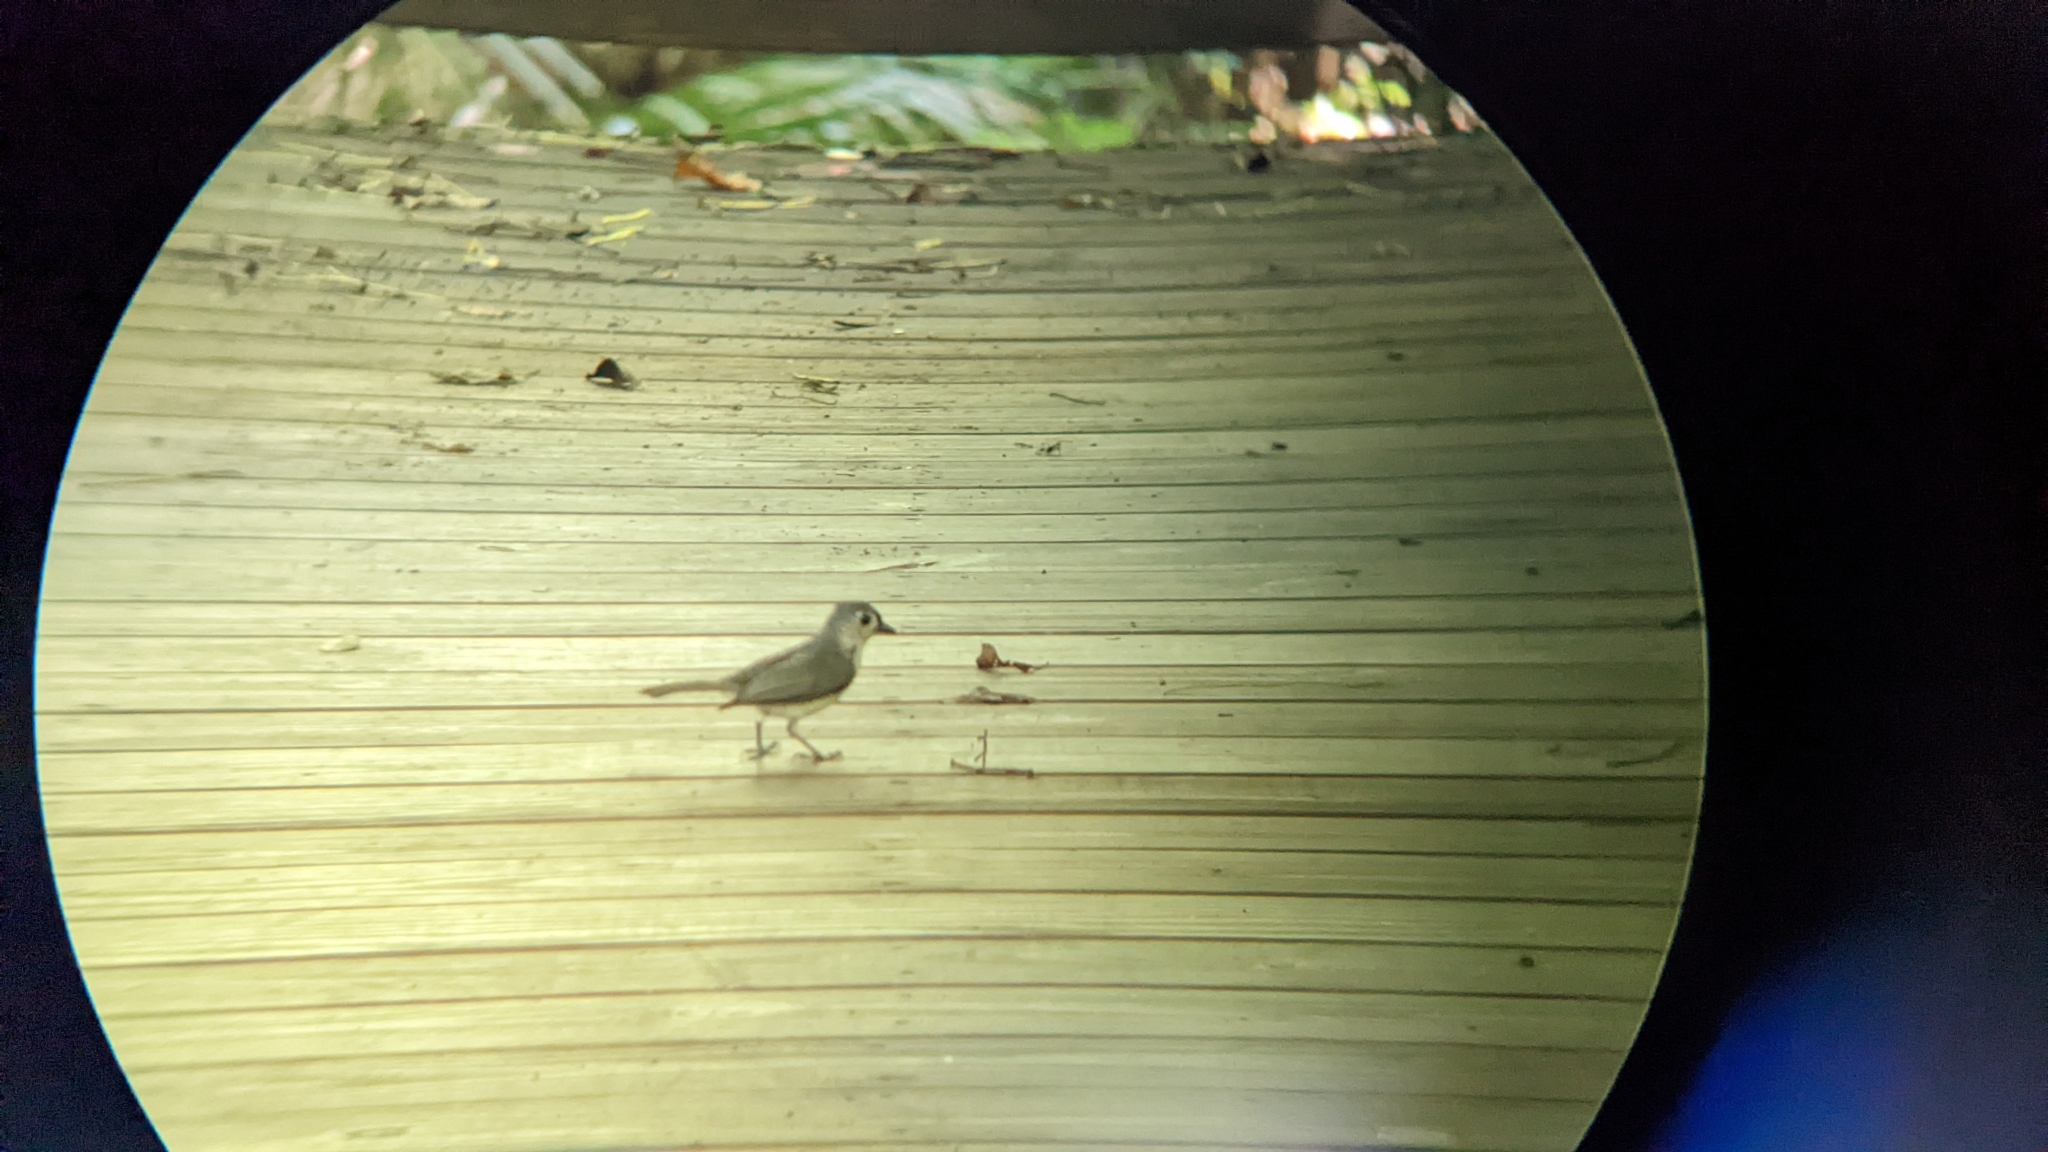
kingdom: Animalia
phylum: Chordata
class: Aves
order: Passeriformes
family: Paridae
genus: Baeolophus
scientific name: Baeolophus bicolor
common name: Tufted titmouse
